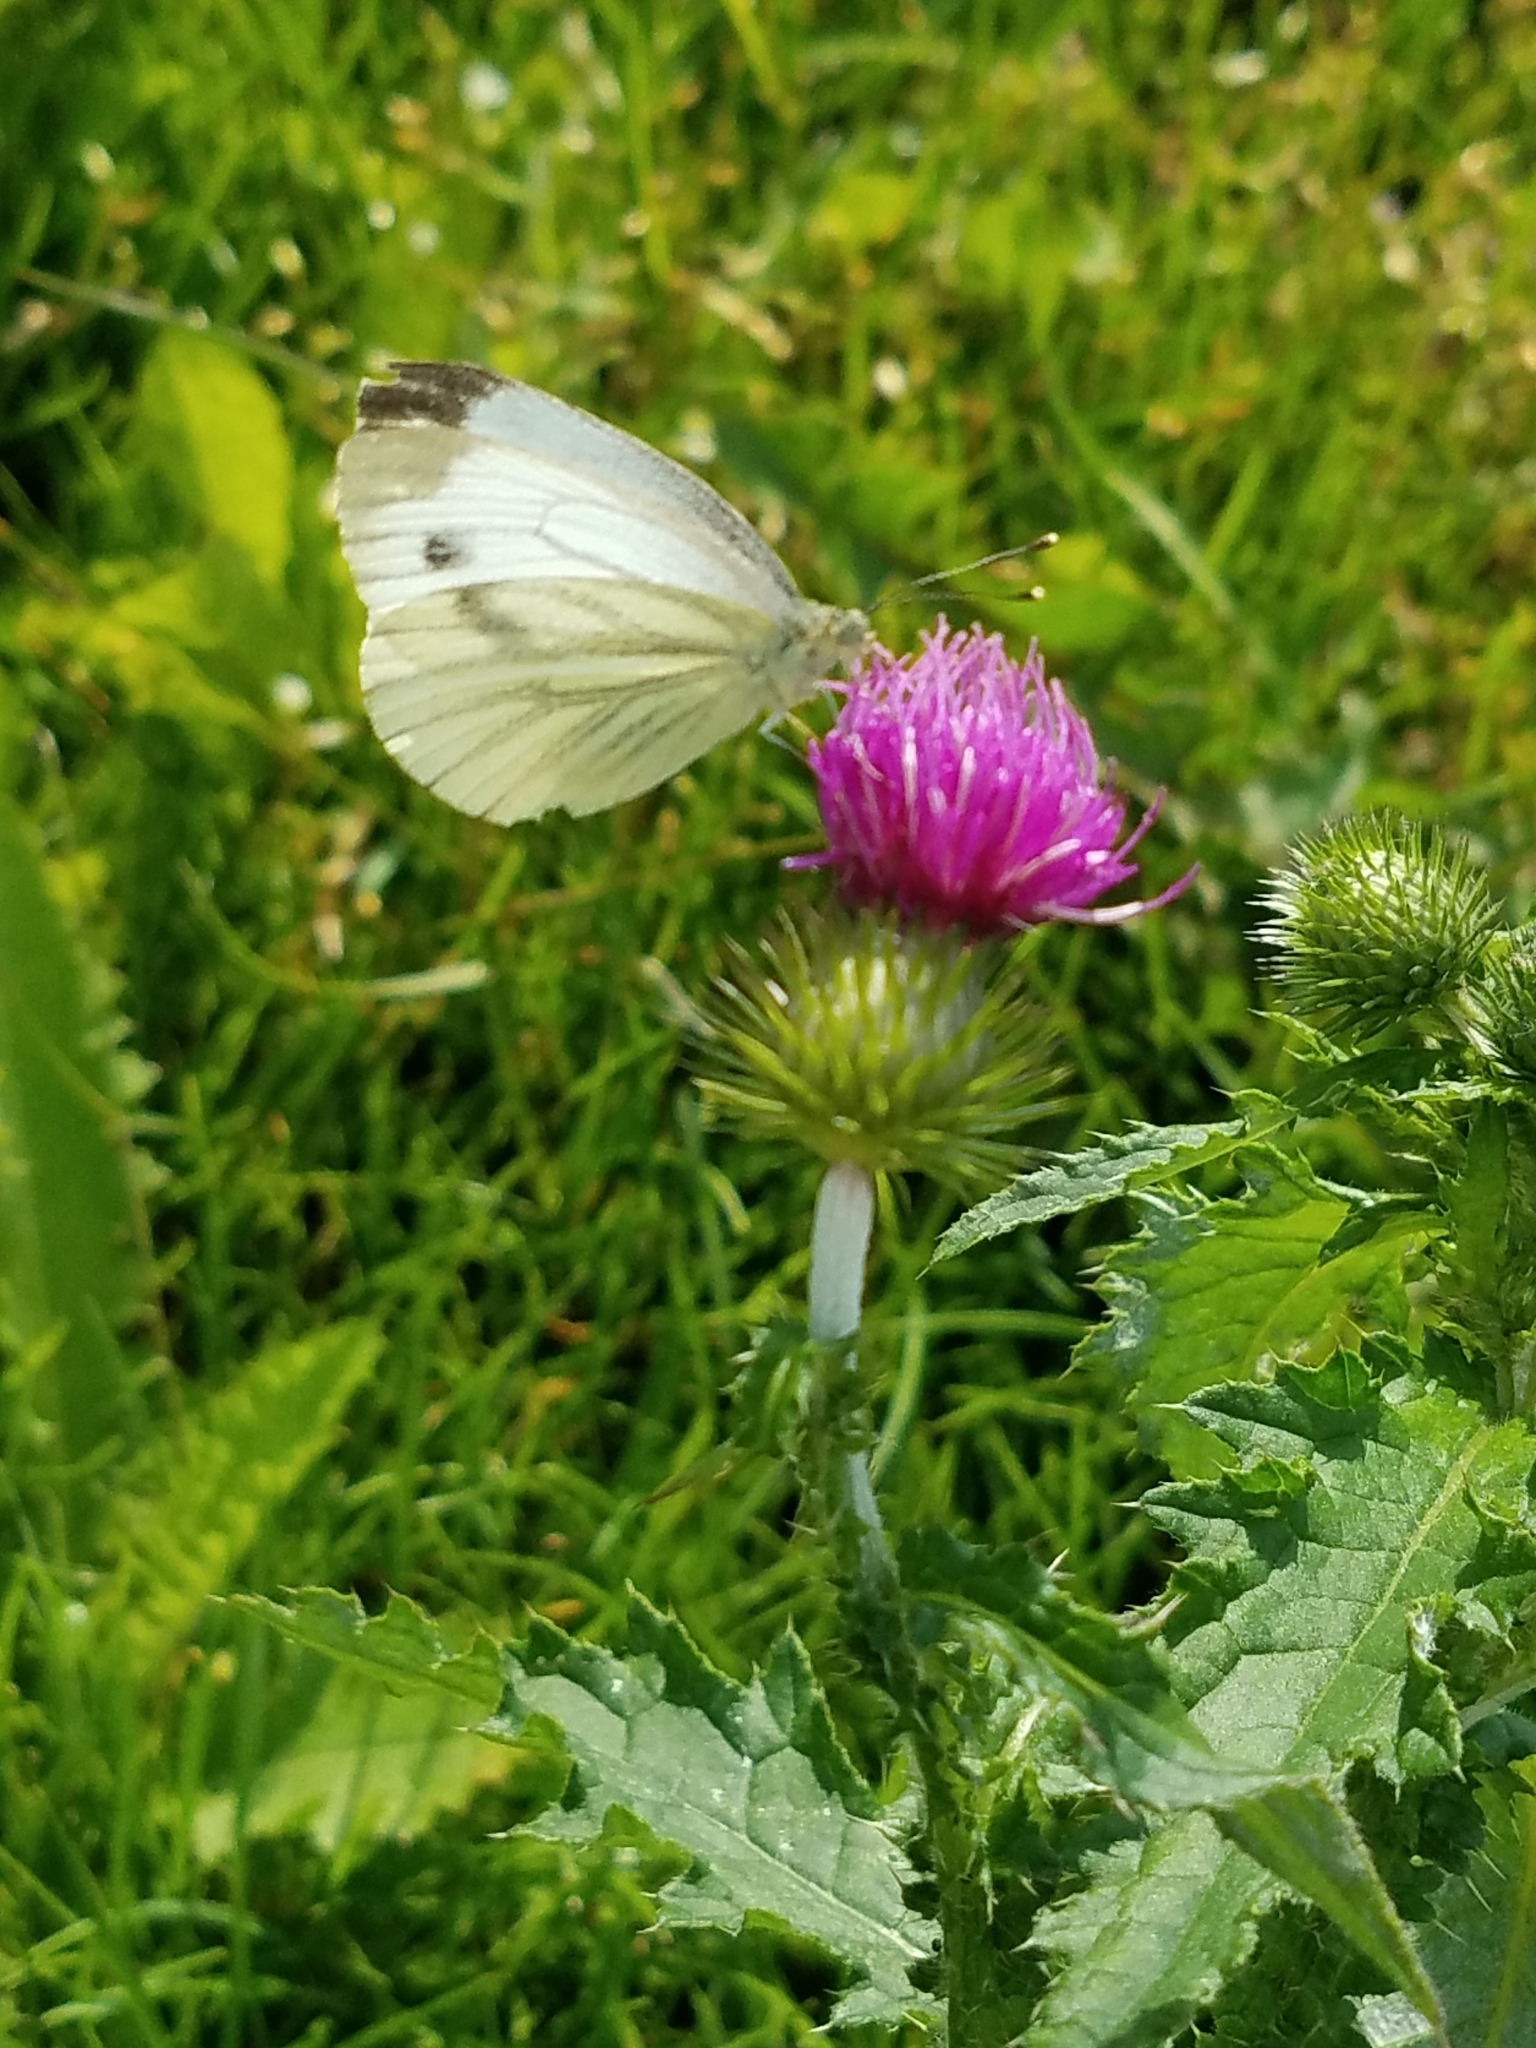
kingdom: Animalia
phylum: Arthropoda
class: Insecta
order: Lepidoptera
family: Pieridae
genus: Pieris
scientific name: Pieris napi
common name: Green-veined white
